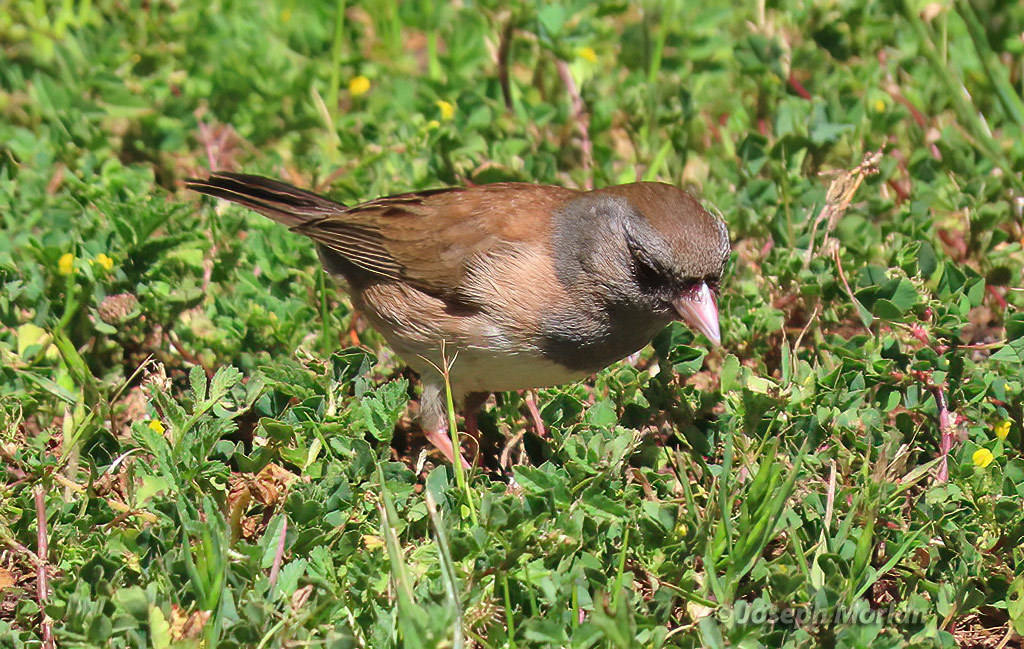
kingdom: Animalia
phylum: Chordata
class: Aves
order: Passeriformes
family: Passerellidae
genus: Junco
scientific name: Junco hyemalis
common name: Dark-eyed junco
